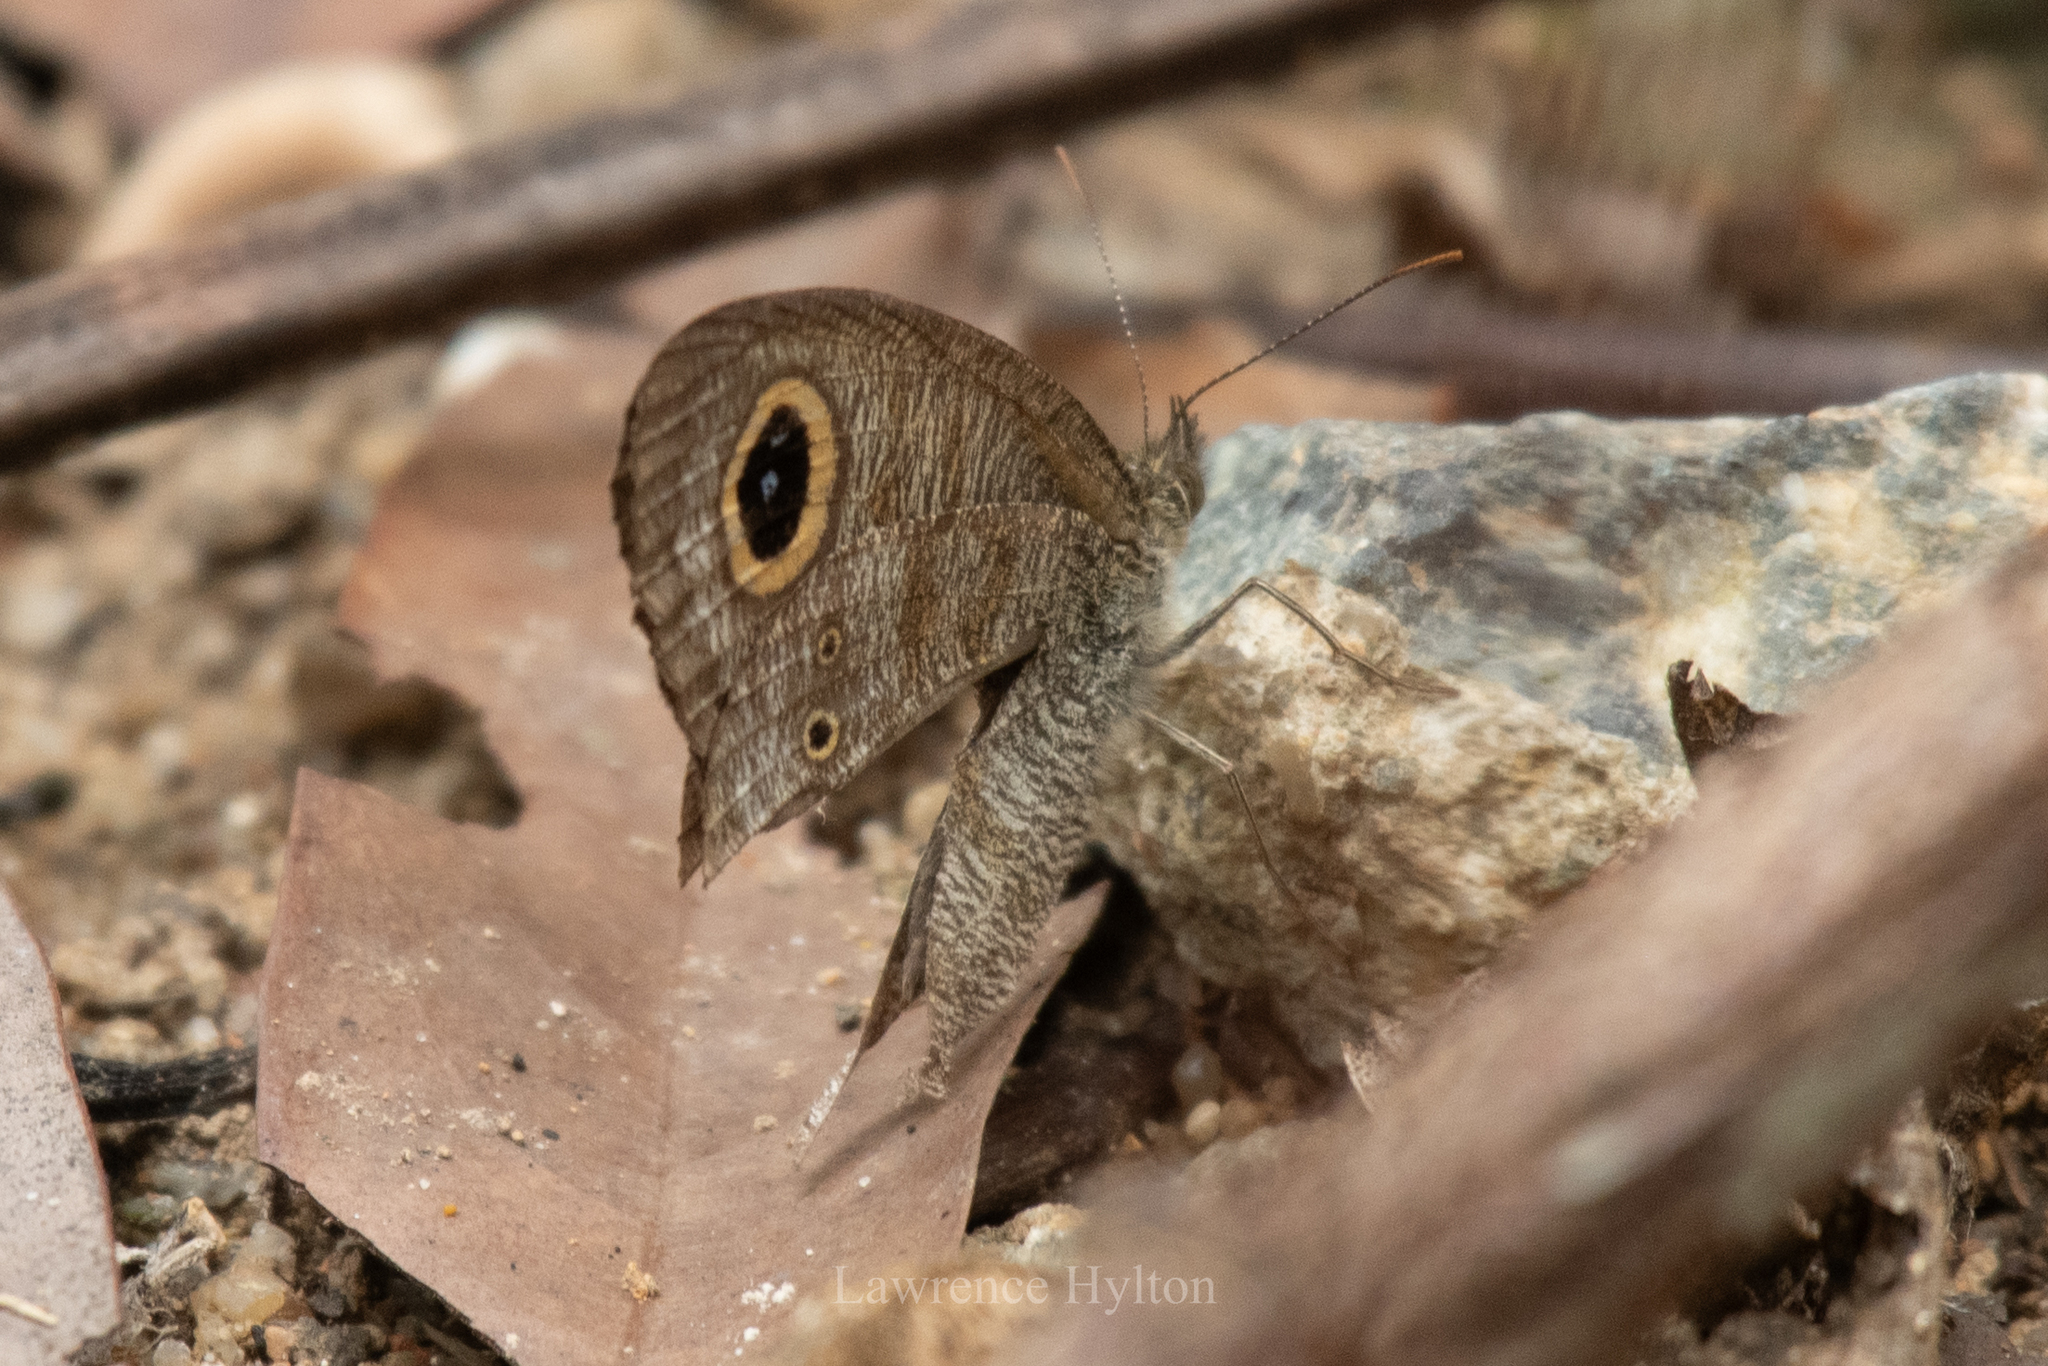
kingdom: Animalia
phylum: Arthropoda
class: Insecta
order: Lepidoptera
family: Nymphalidae
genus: Ypthima
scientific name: Ypthima baldus
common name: Common five-ring
